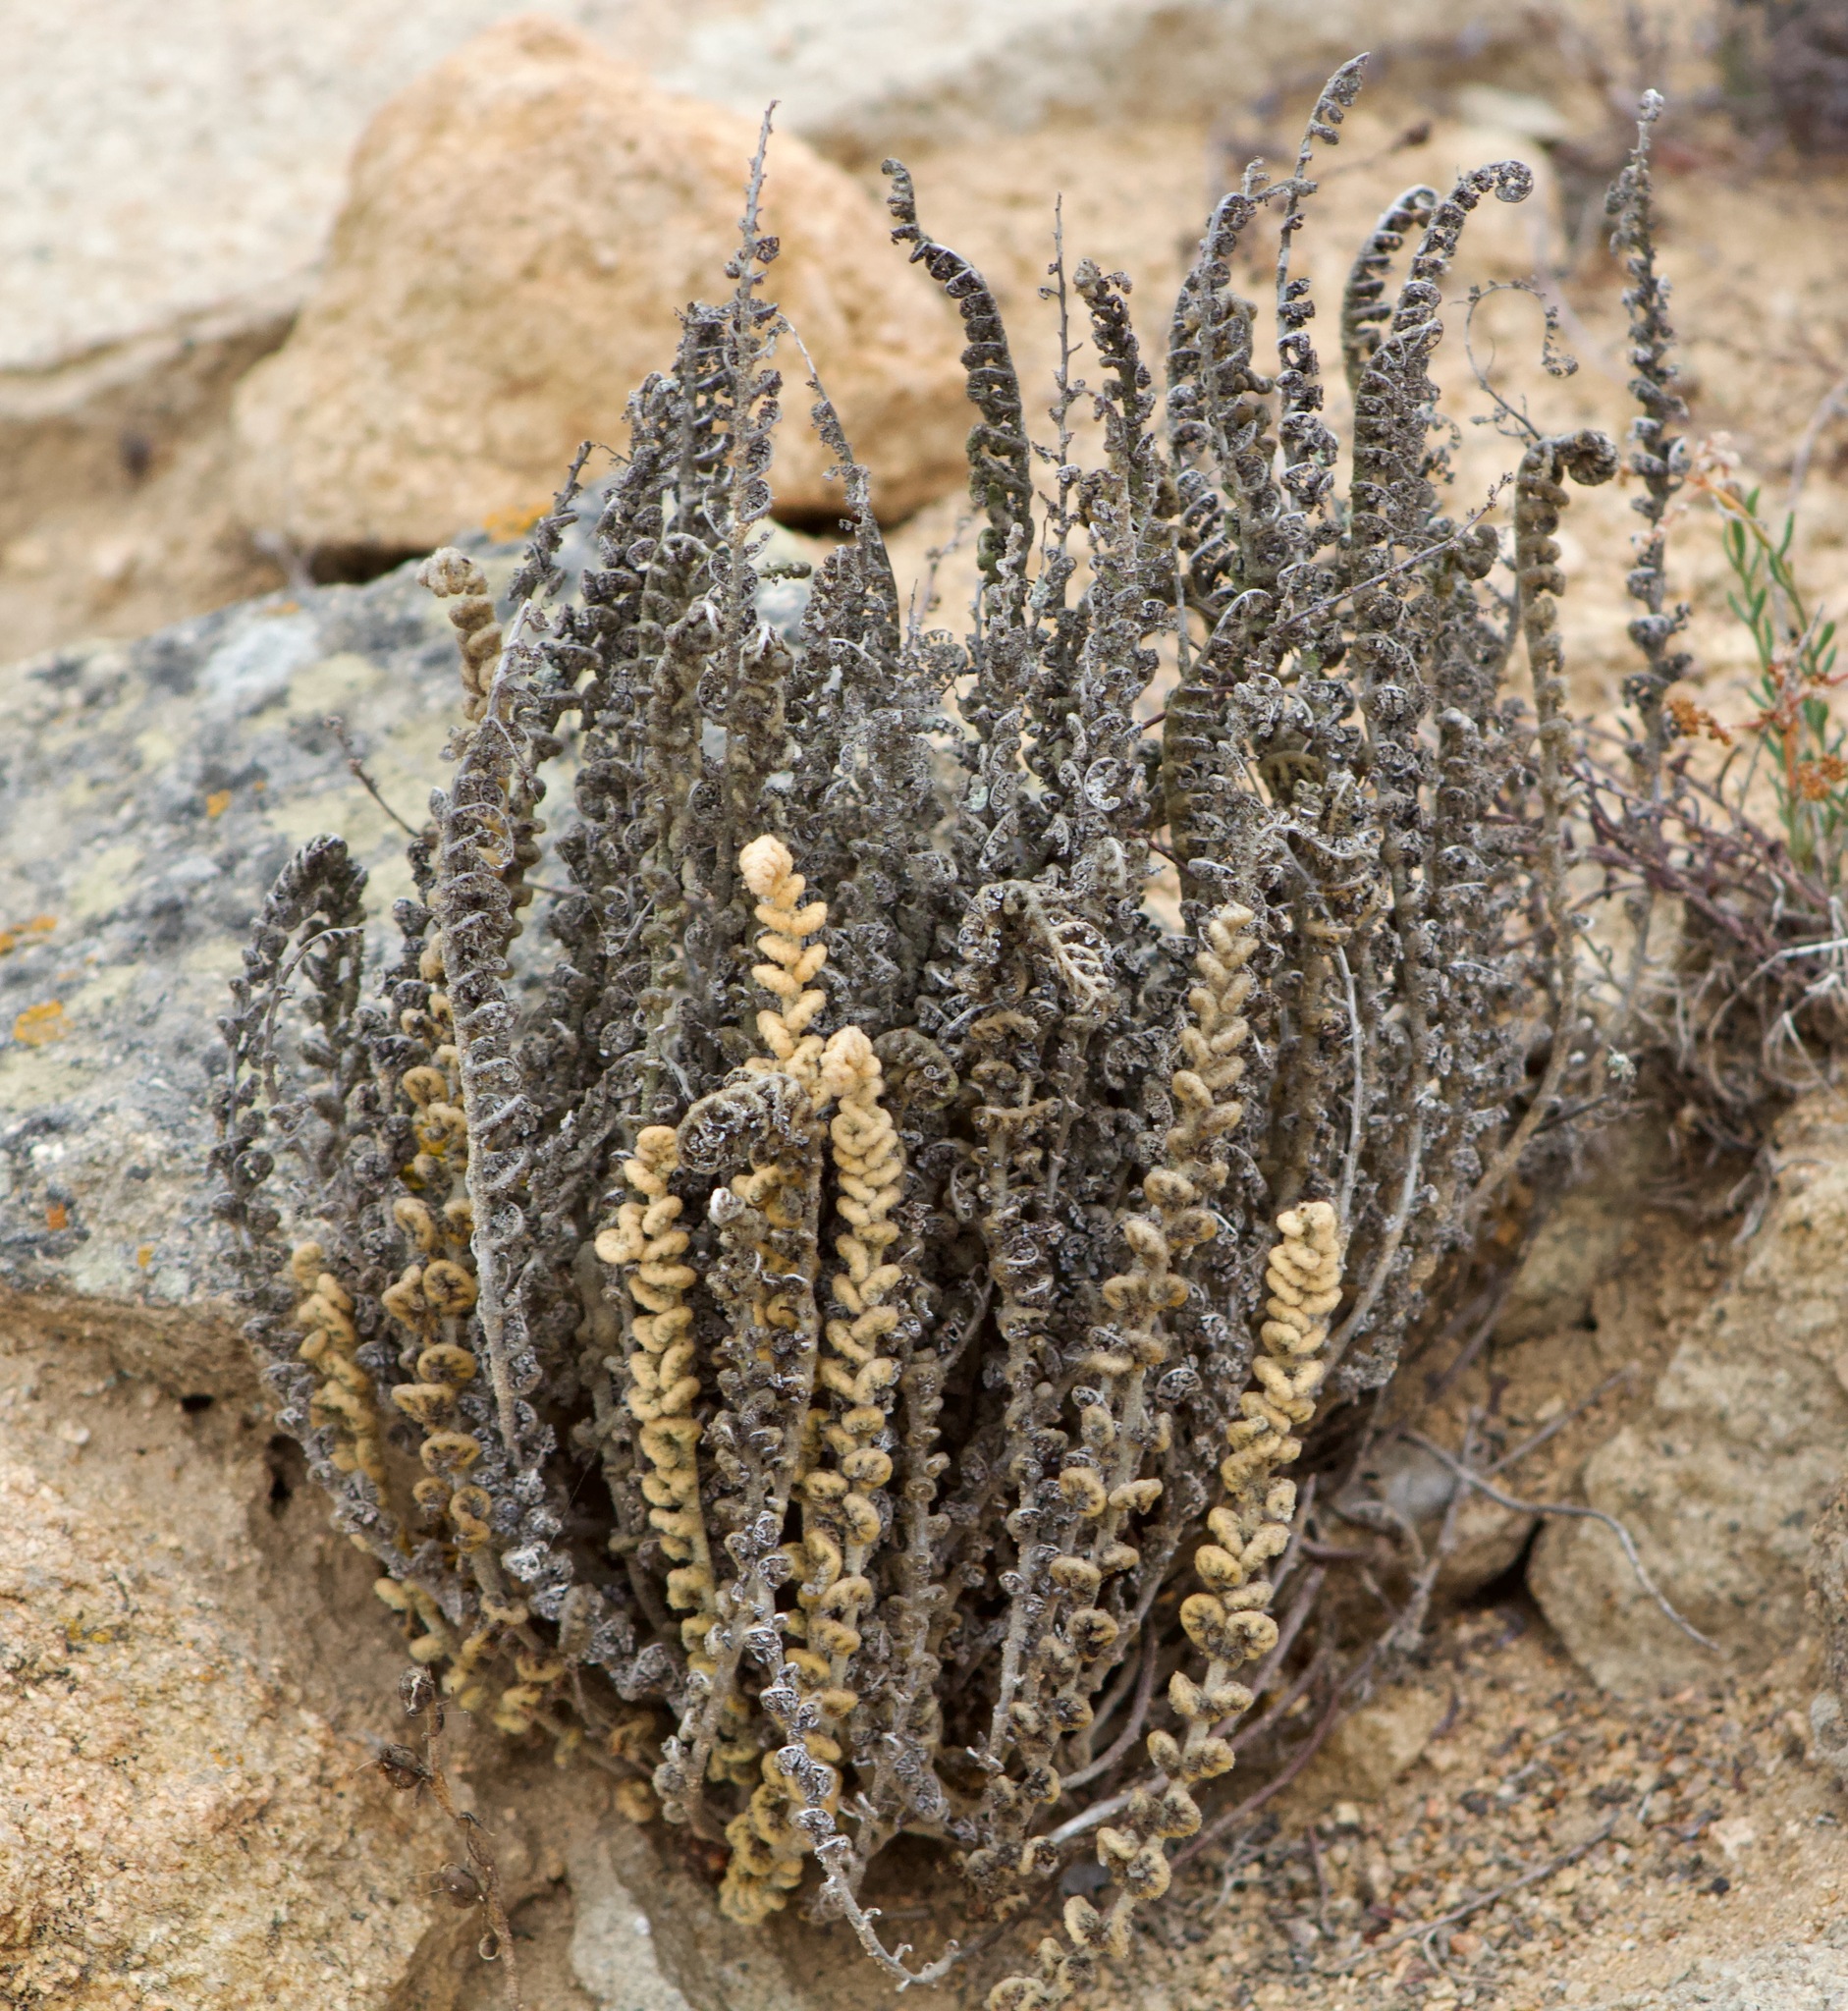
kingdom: Plantae
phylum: Tracheophyta
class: Polypodiopsida
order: Polypodiales
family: Pteridaceae
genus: Cheilanthes
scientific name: Cheilanthes mollis
